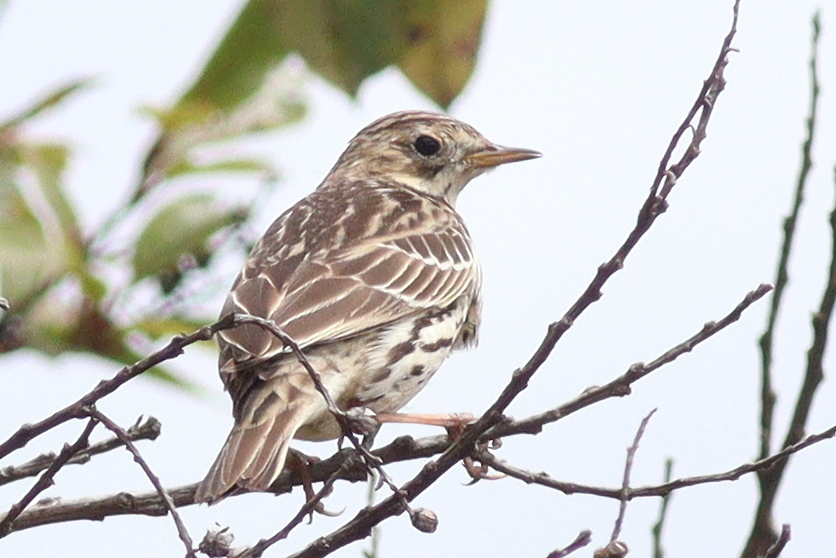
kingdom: Animalia
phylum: Chordata
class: Aves
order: Passeriformes
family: Motacillidae
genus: Anthus
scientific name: Anthus cervinus
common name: Red-throated pipit
